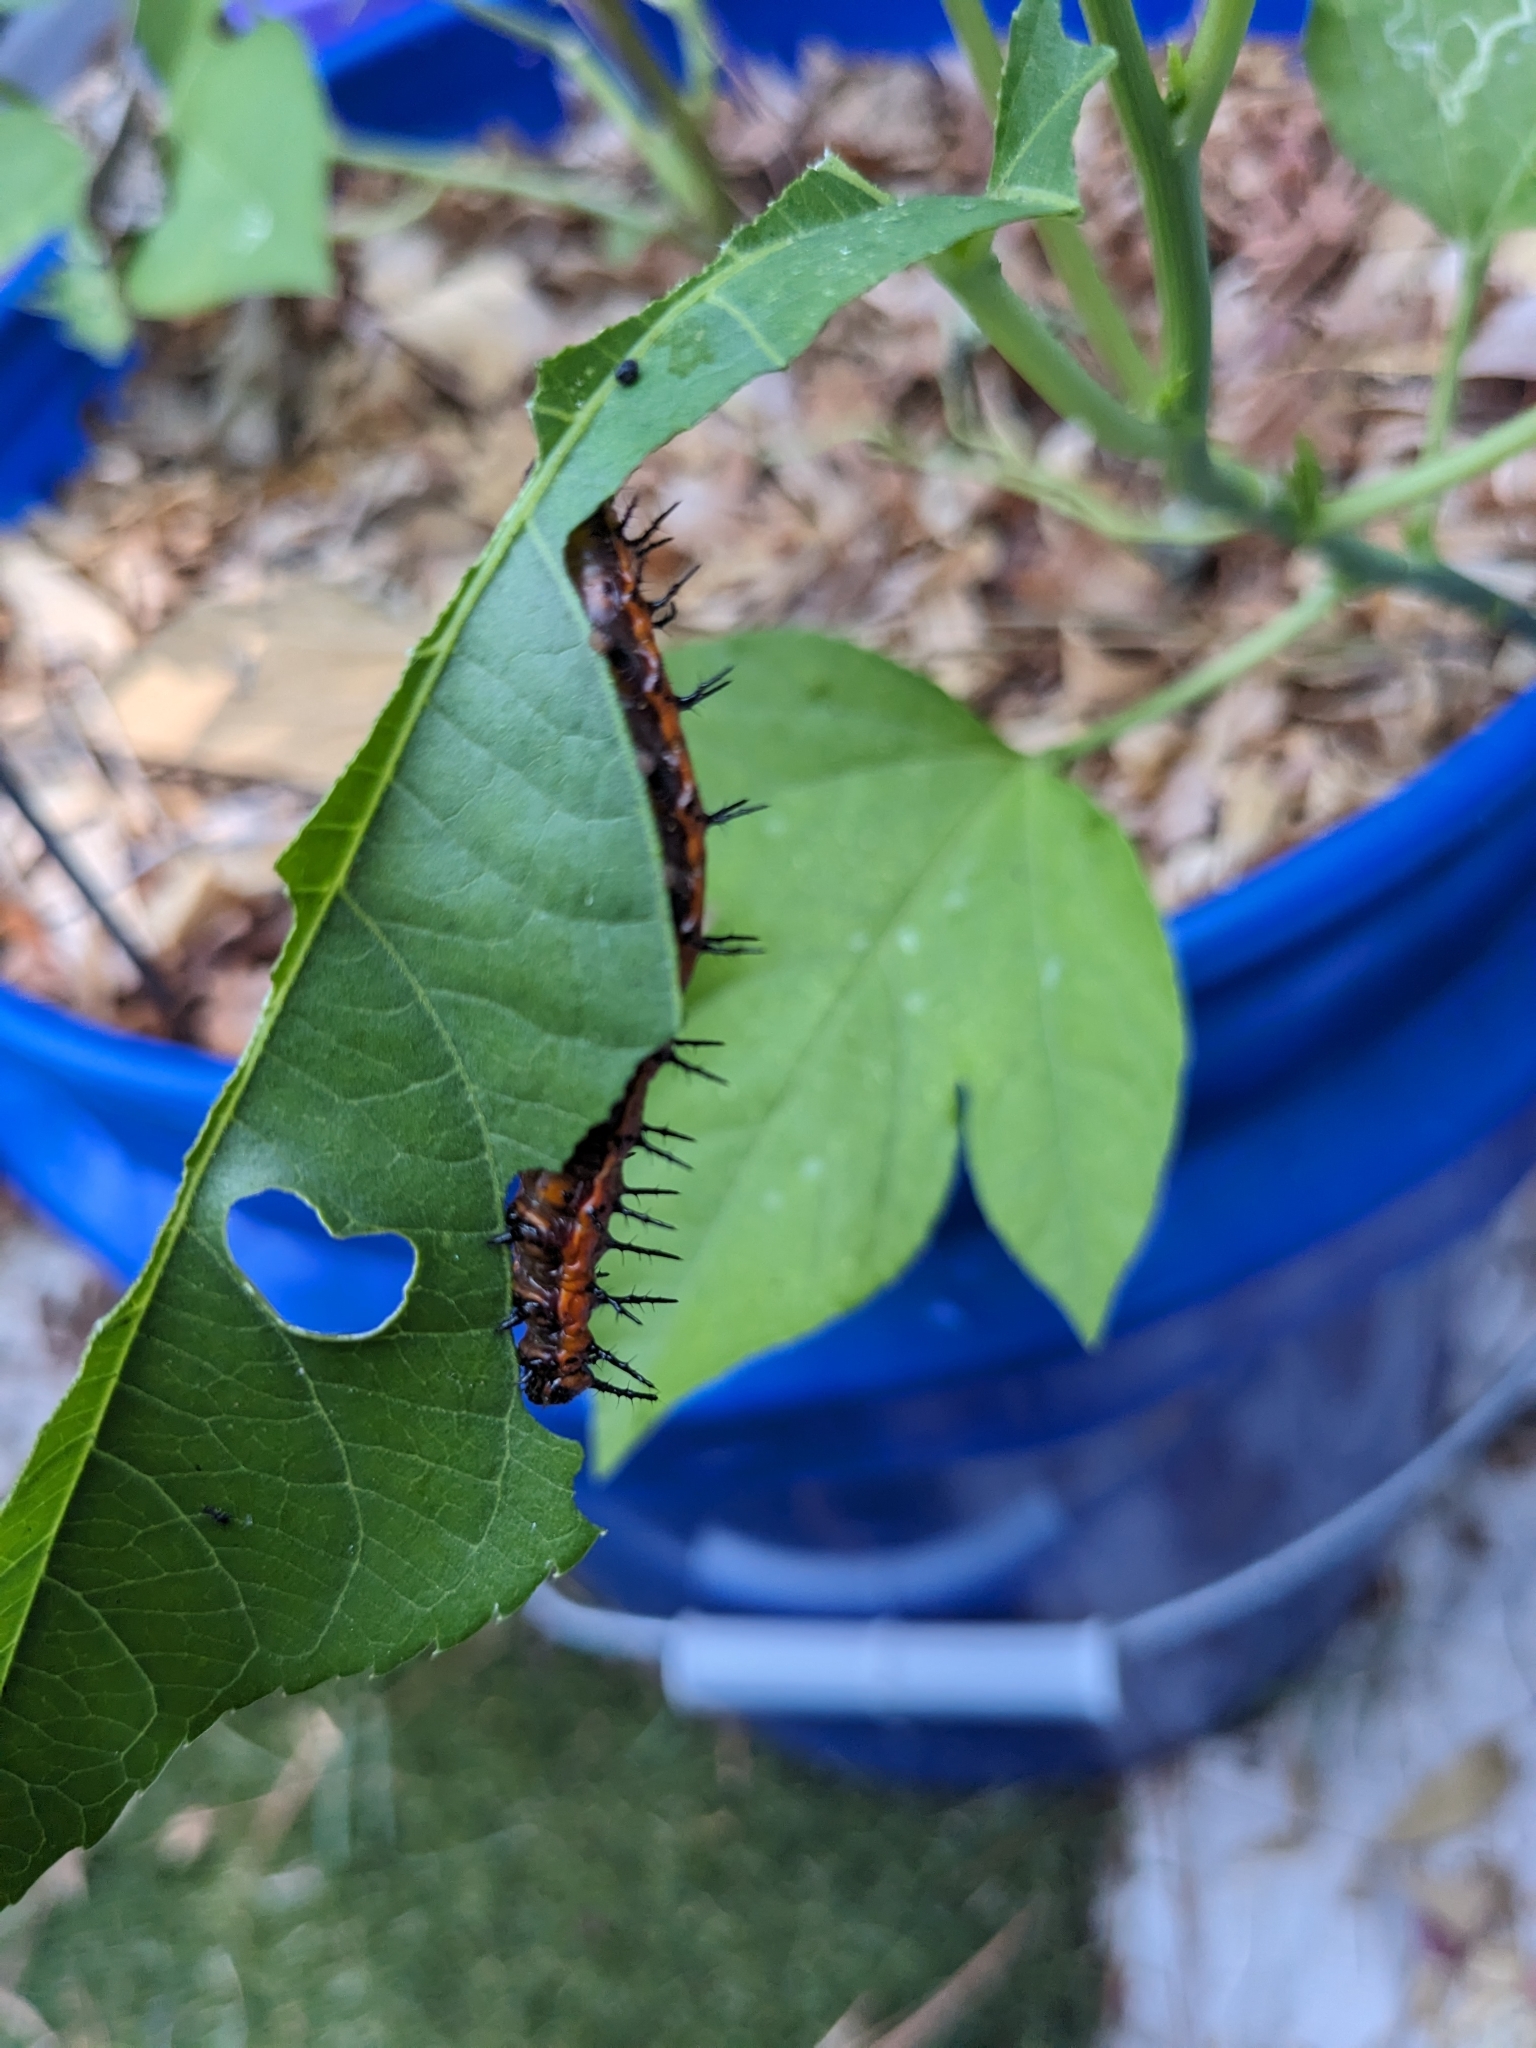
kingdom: Animalia
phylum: Arthropoda
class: Insecta
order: Lepidoptera
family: Nymphalidae
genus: Dione
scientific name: Dione vanillae
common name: Gulf fritillary
